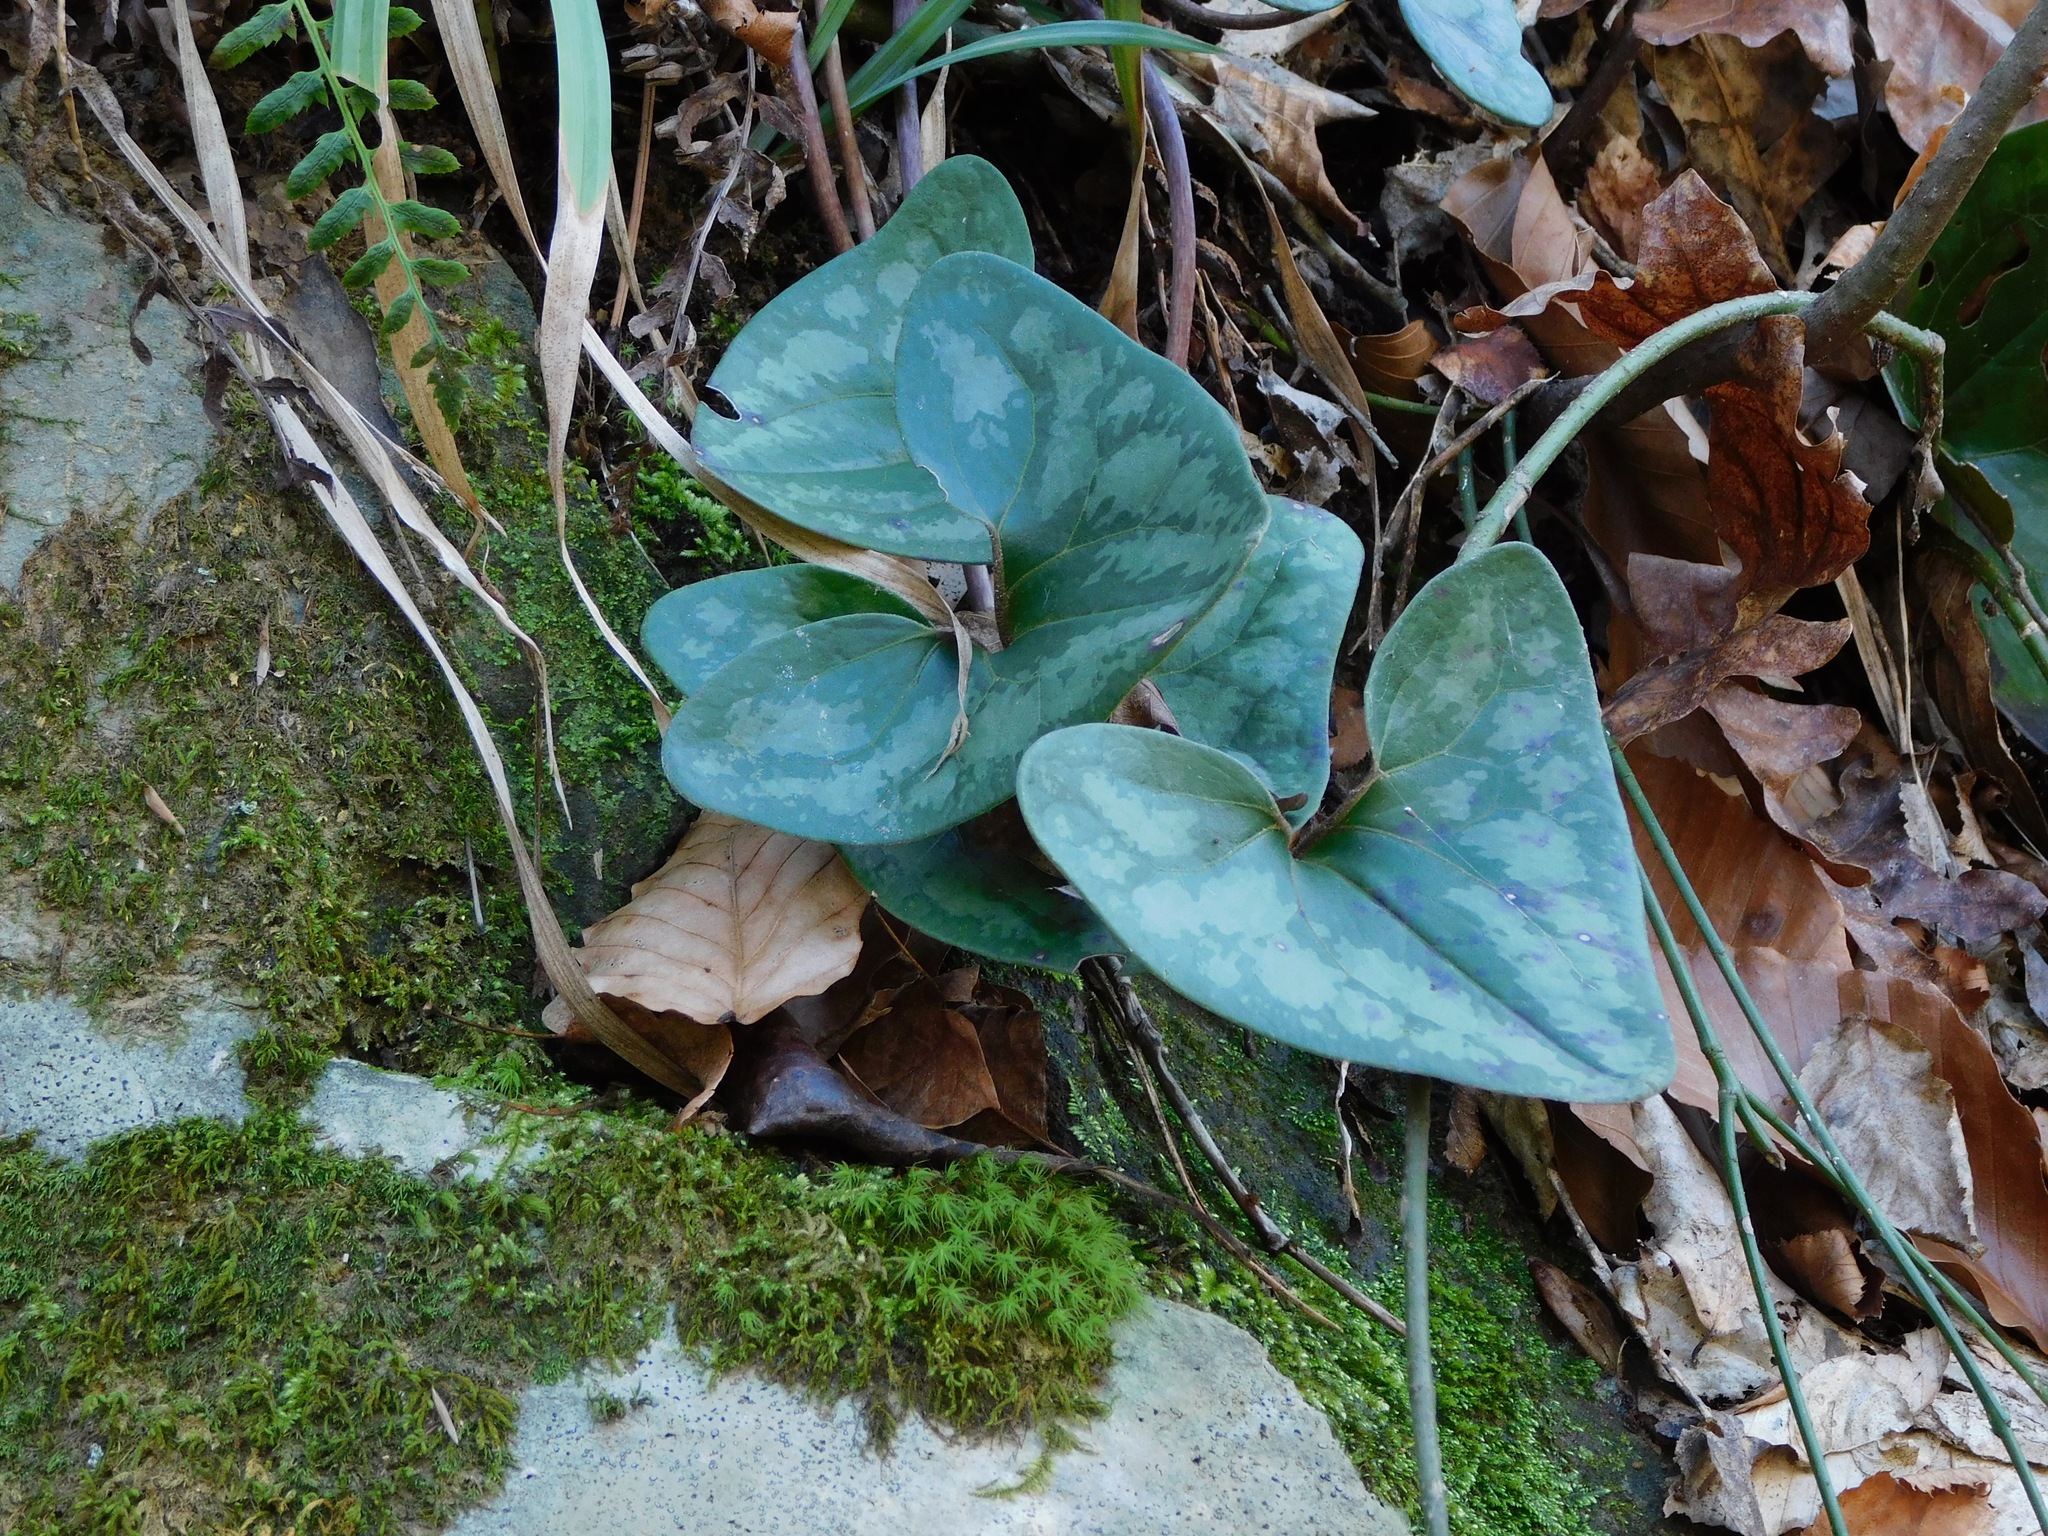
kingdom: Plantae
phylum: Tracheophyta
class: Magnoliopsida
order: Piperales
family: Aristolochiaceae
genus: Hexastylis
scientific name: Hexastylis arifolia
